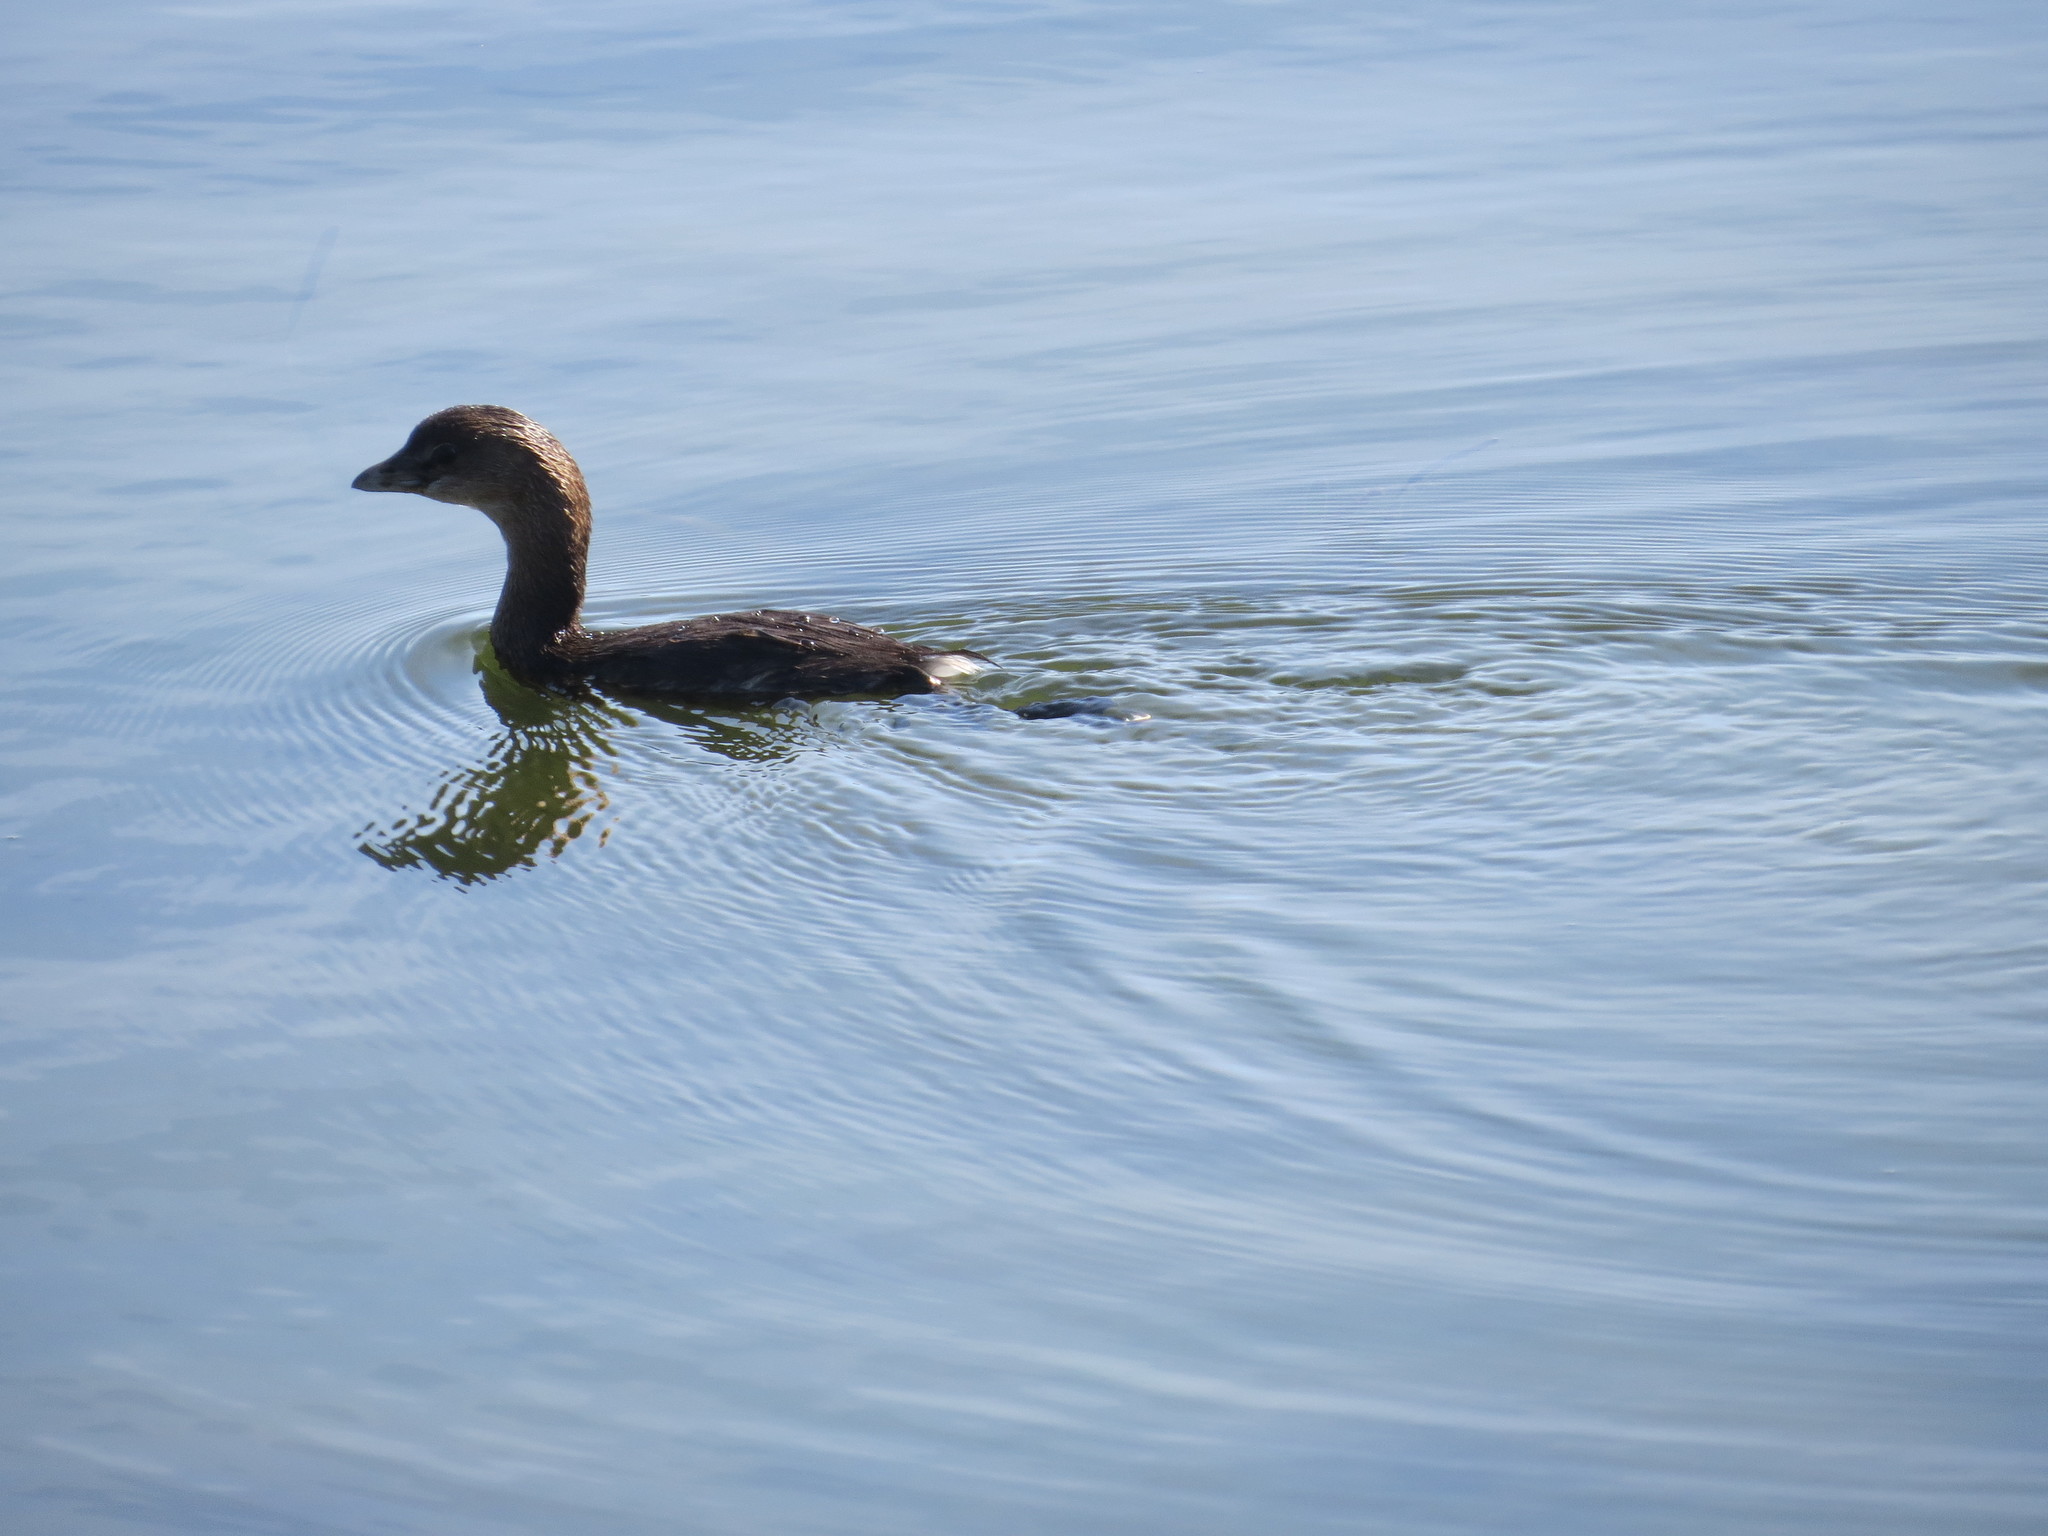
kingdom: Animalia
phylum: Chordata
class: Aves
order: Podicipediformes
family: Podicipedidae
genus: Podilymbus
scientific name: Podilymbus podiceps
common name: Pied-billed grebe
